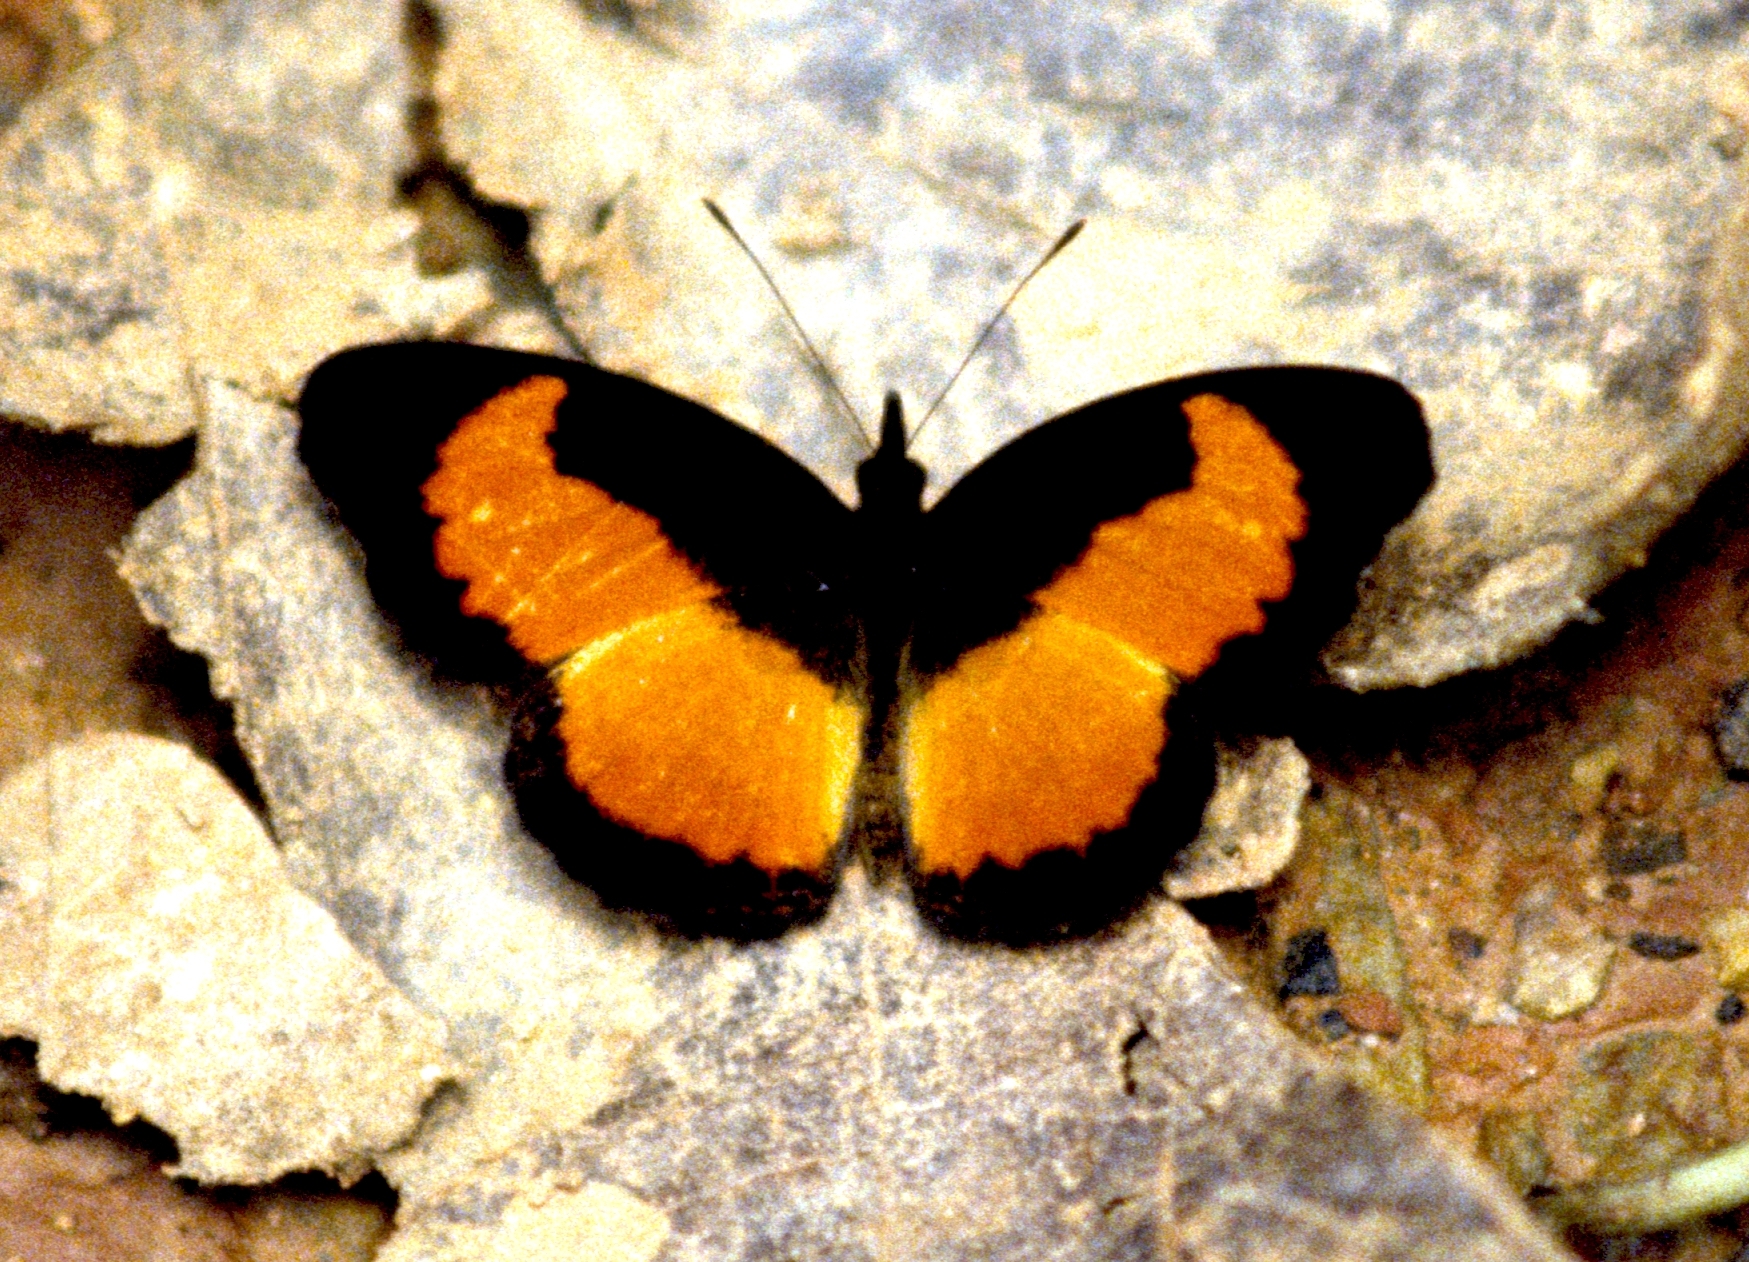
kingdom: Animalia
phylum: Arthropoda
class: Insecta
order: Lepidoptera
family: Nymphalidae
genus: Vanessula
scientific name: Vanessula milea
